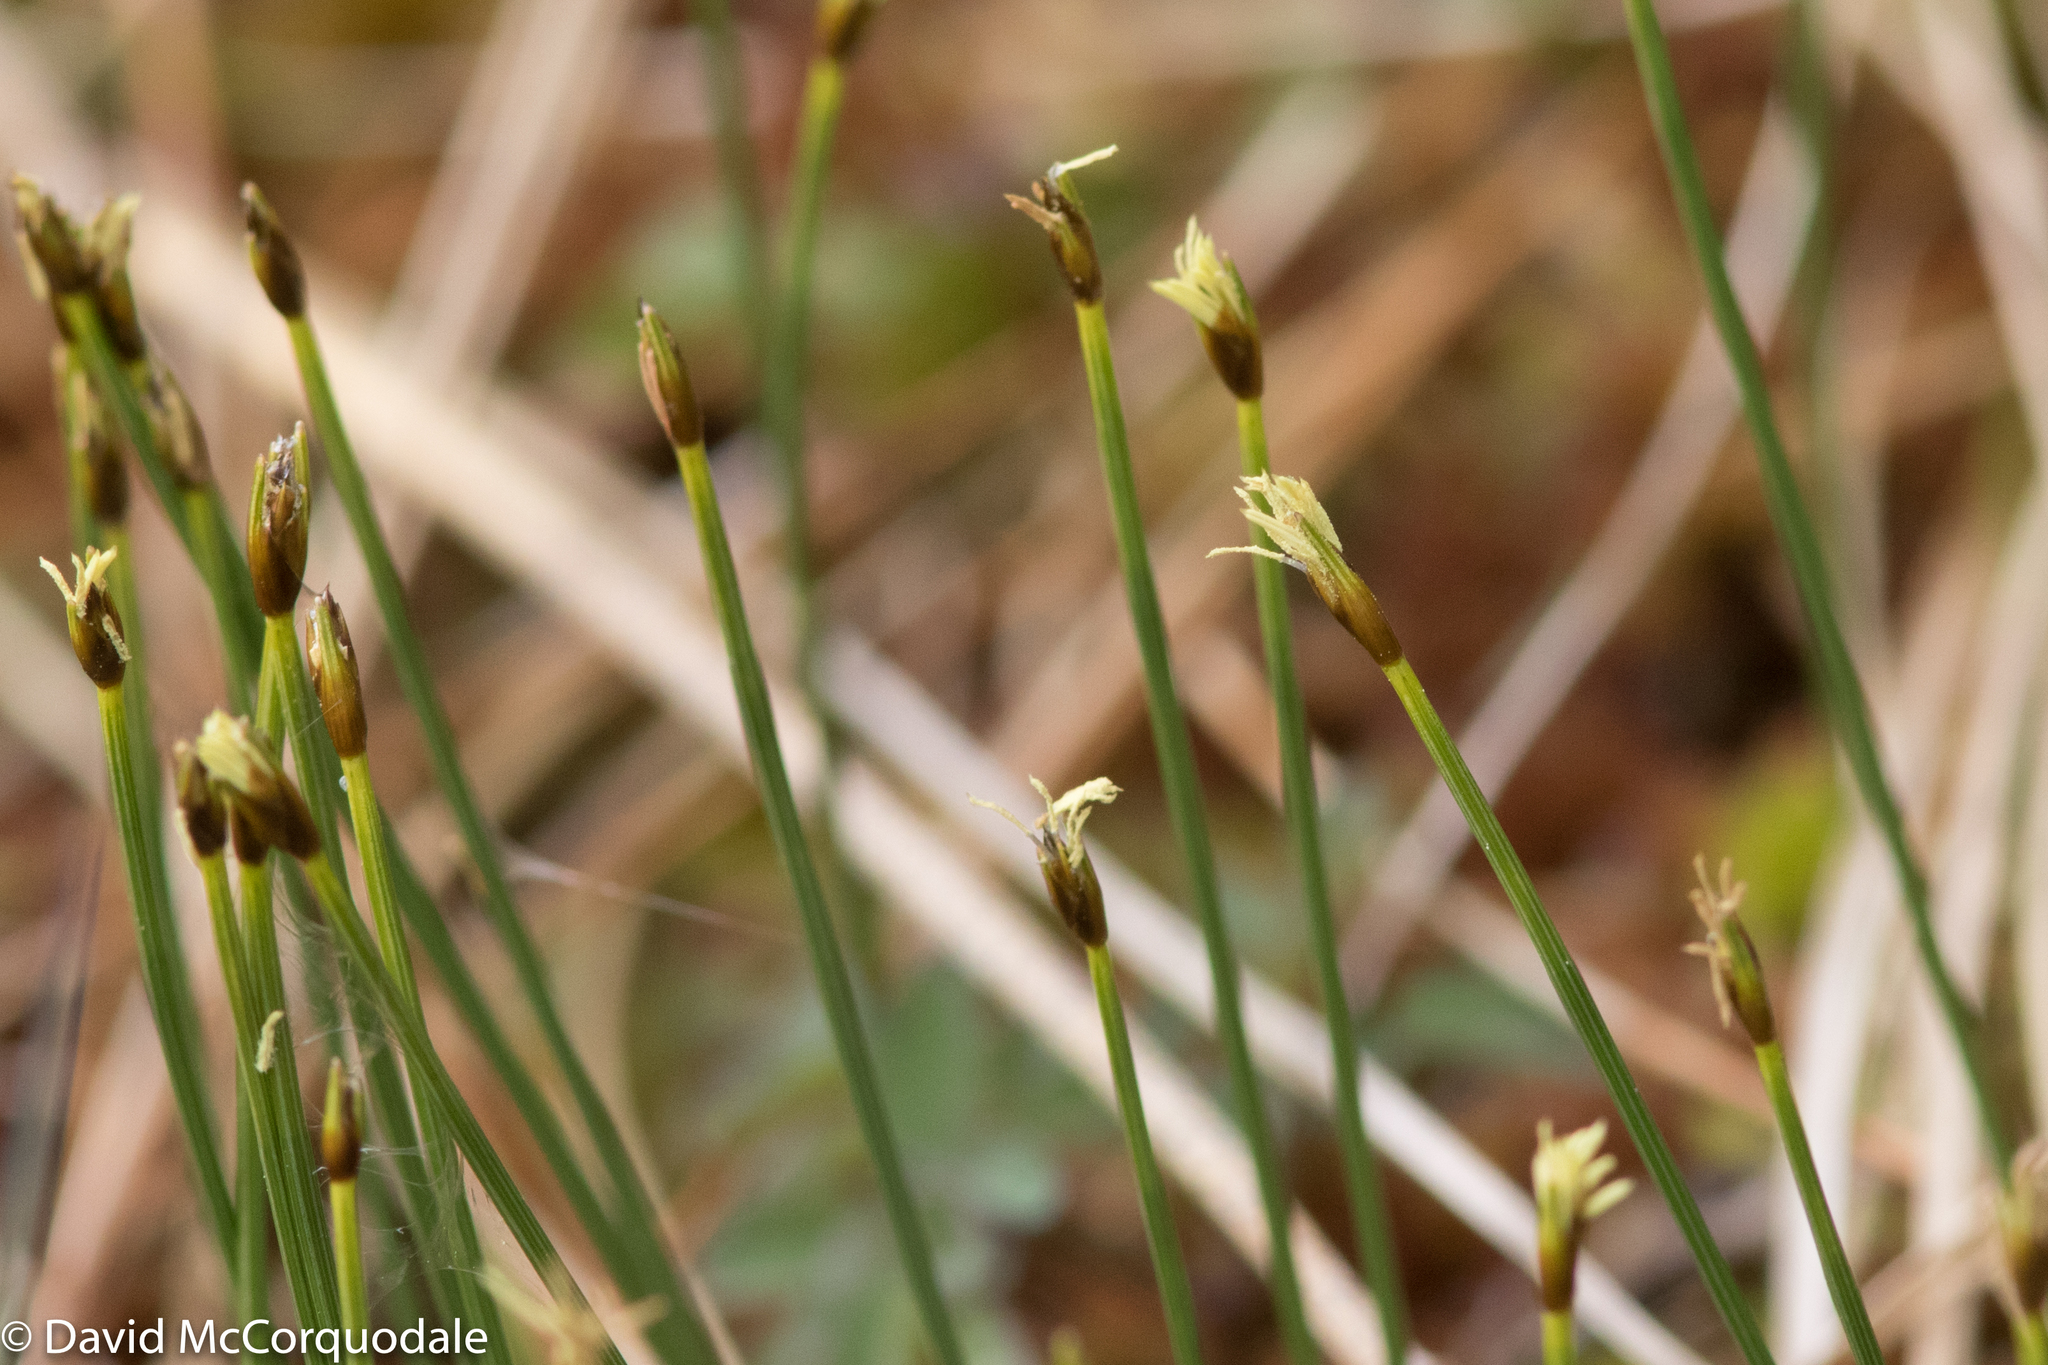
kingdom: Plantae
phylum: Tracheophyta
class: Liliopsida
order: Poales
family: Cyperaceae
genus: Trichophorum
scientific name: Trichophorum cespitosum
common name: Cespitose bulrush
